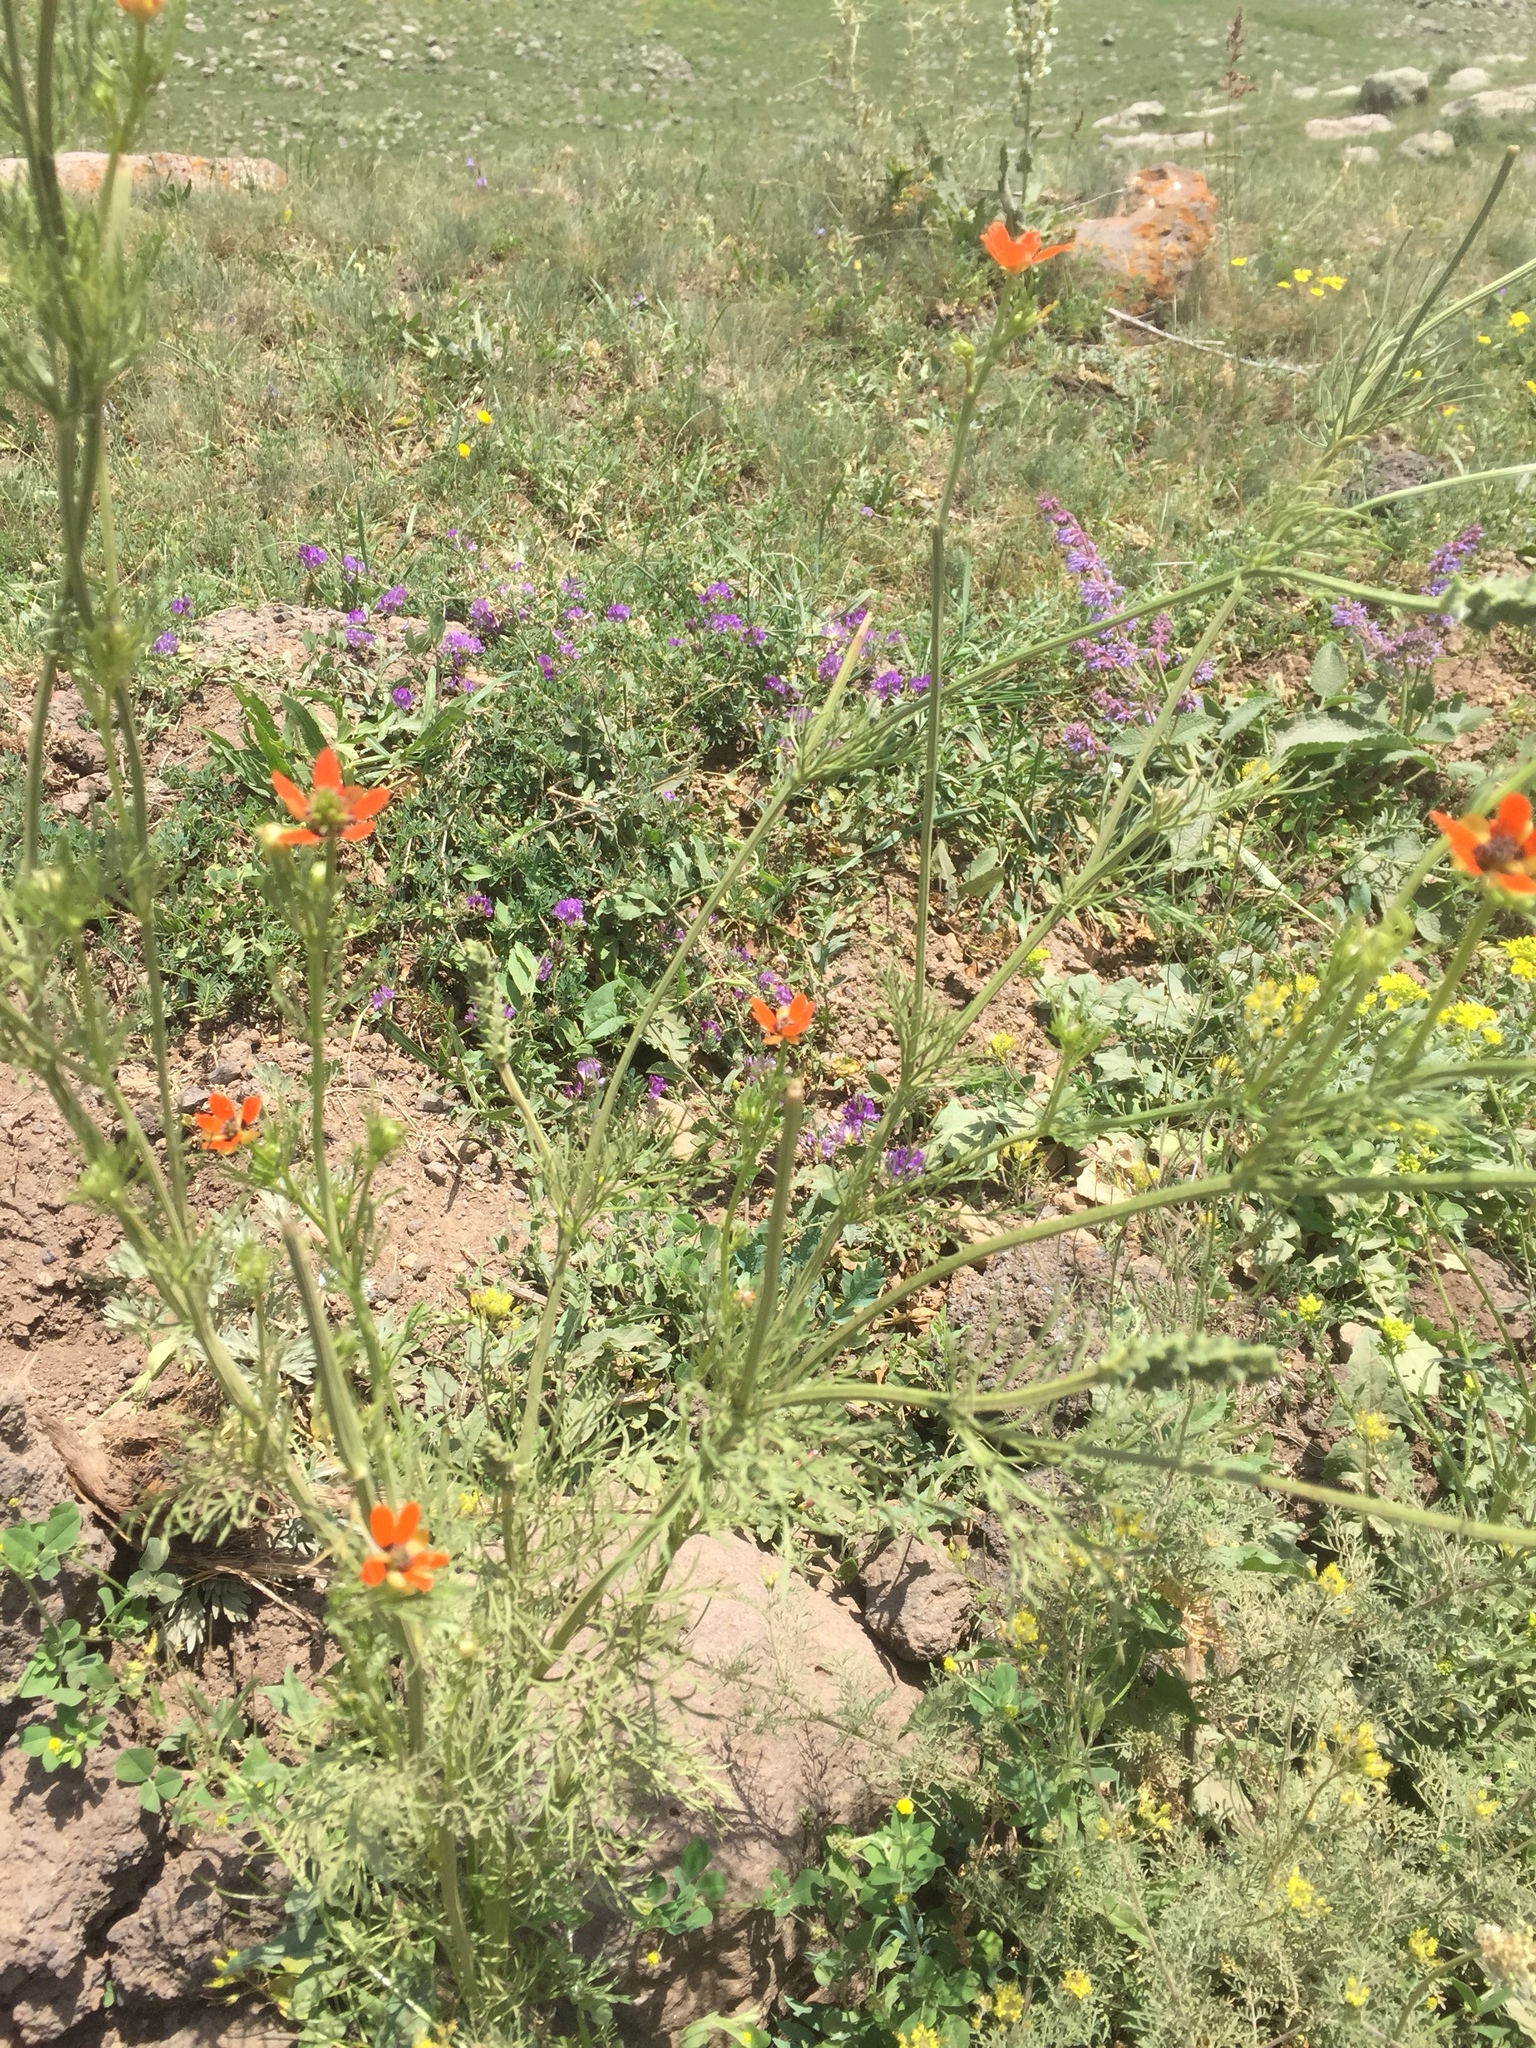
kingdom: Plantae
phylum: Tracheophyta
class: Magnoliopsida
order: Ranunculales
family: Ranunculaceae
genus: Adonis
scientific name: Adonis aestivalis
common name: Summer pheasant's-eye
